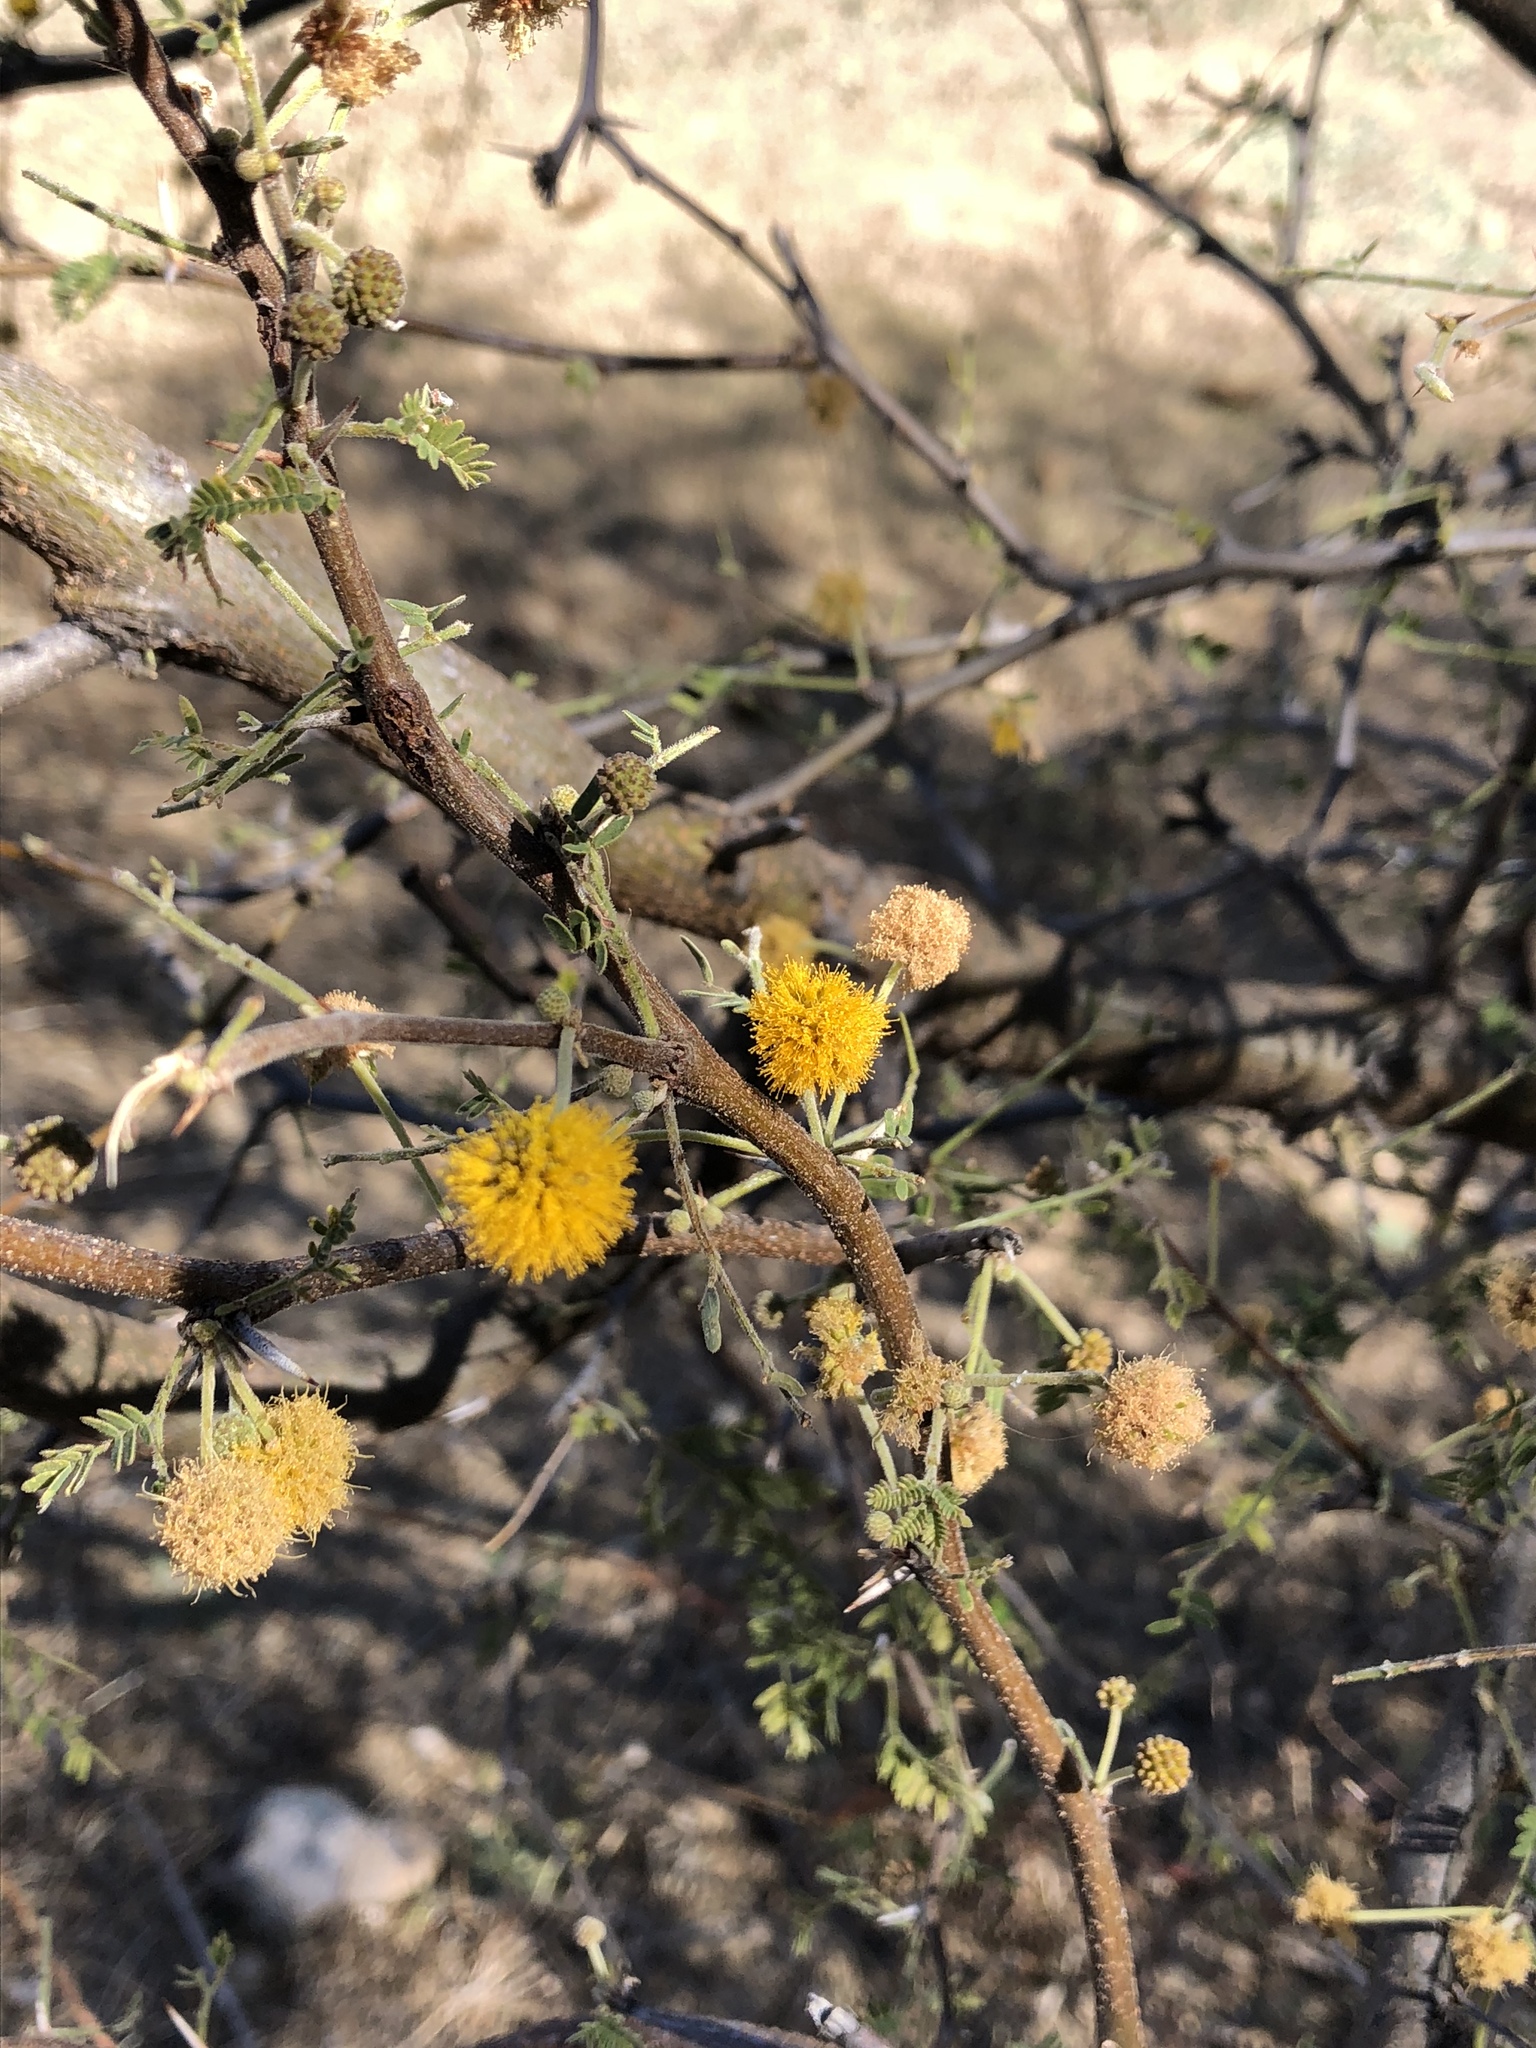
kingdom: Plantae
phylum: Tracheophyta
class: Magnoliopsida
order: Fabales
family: Fabaceae
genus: Vachellia
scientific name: Vachellia farnesiana
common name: Sweet acacia
